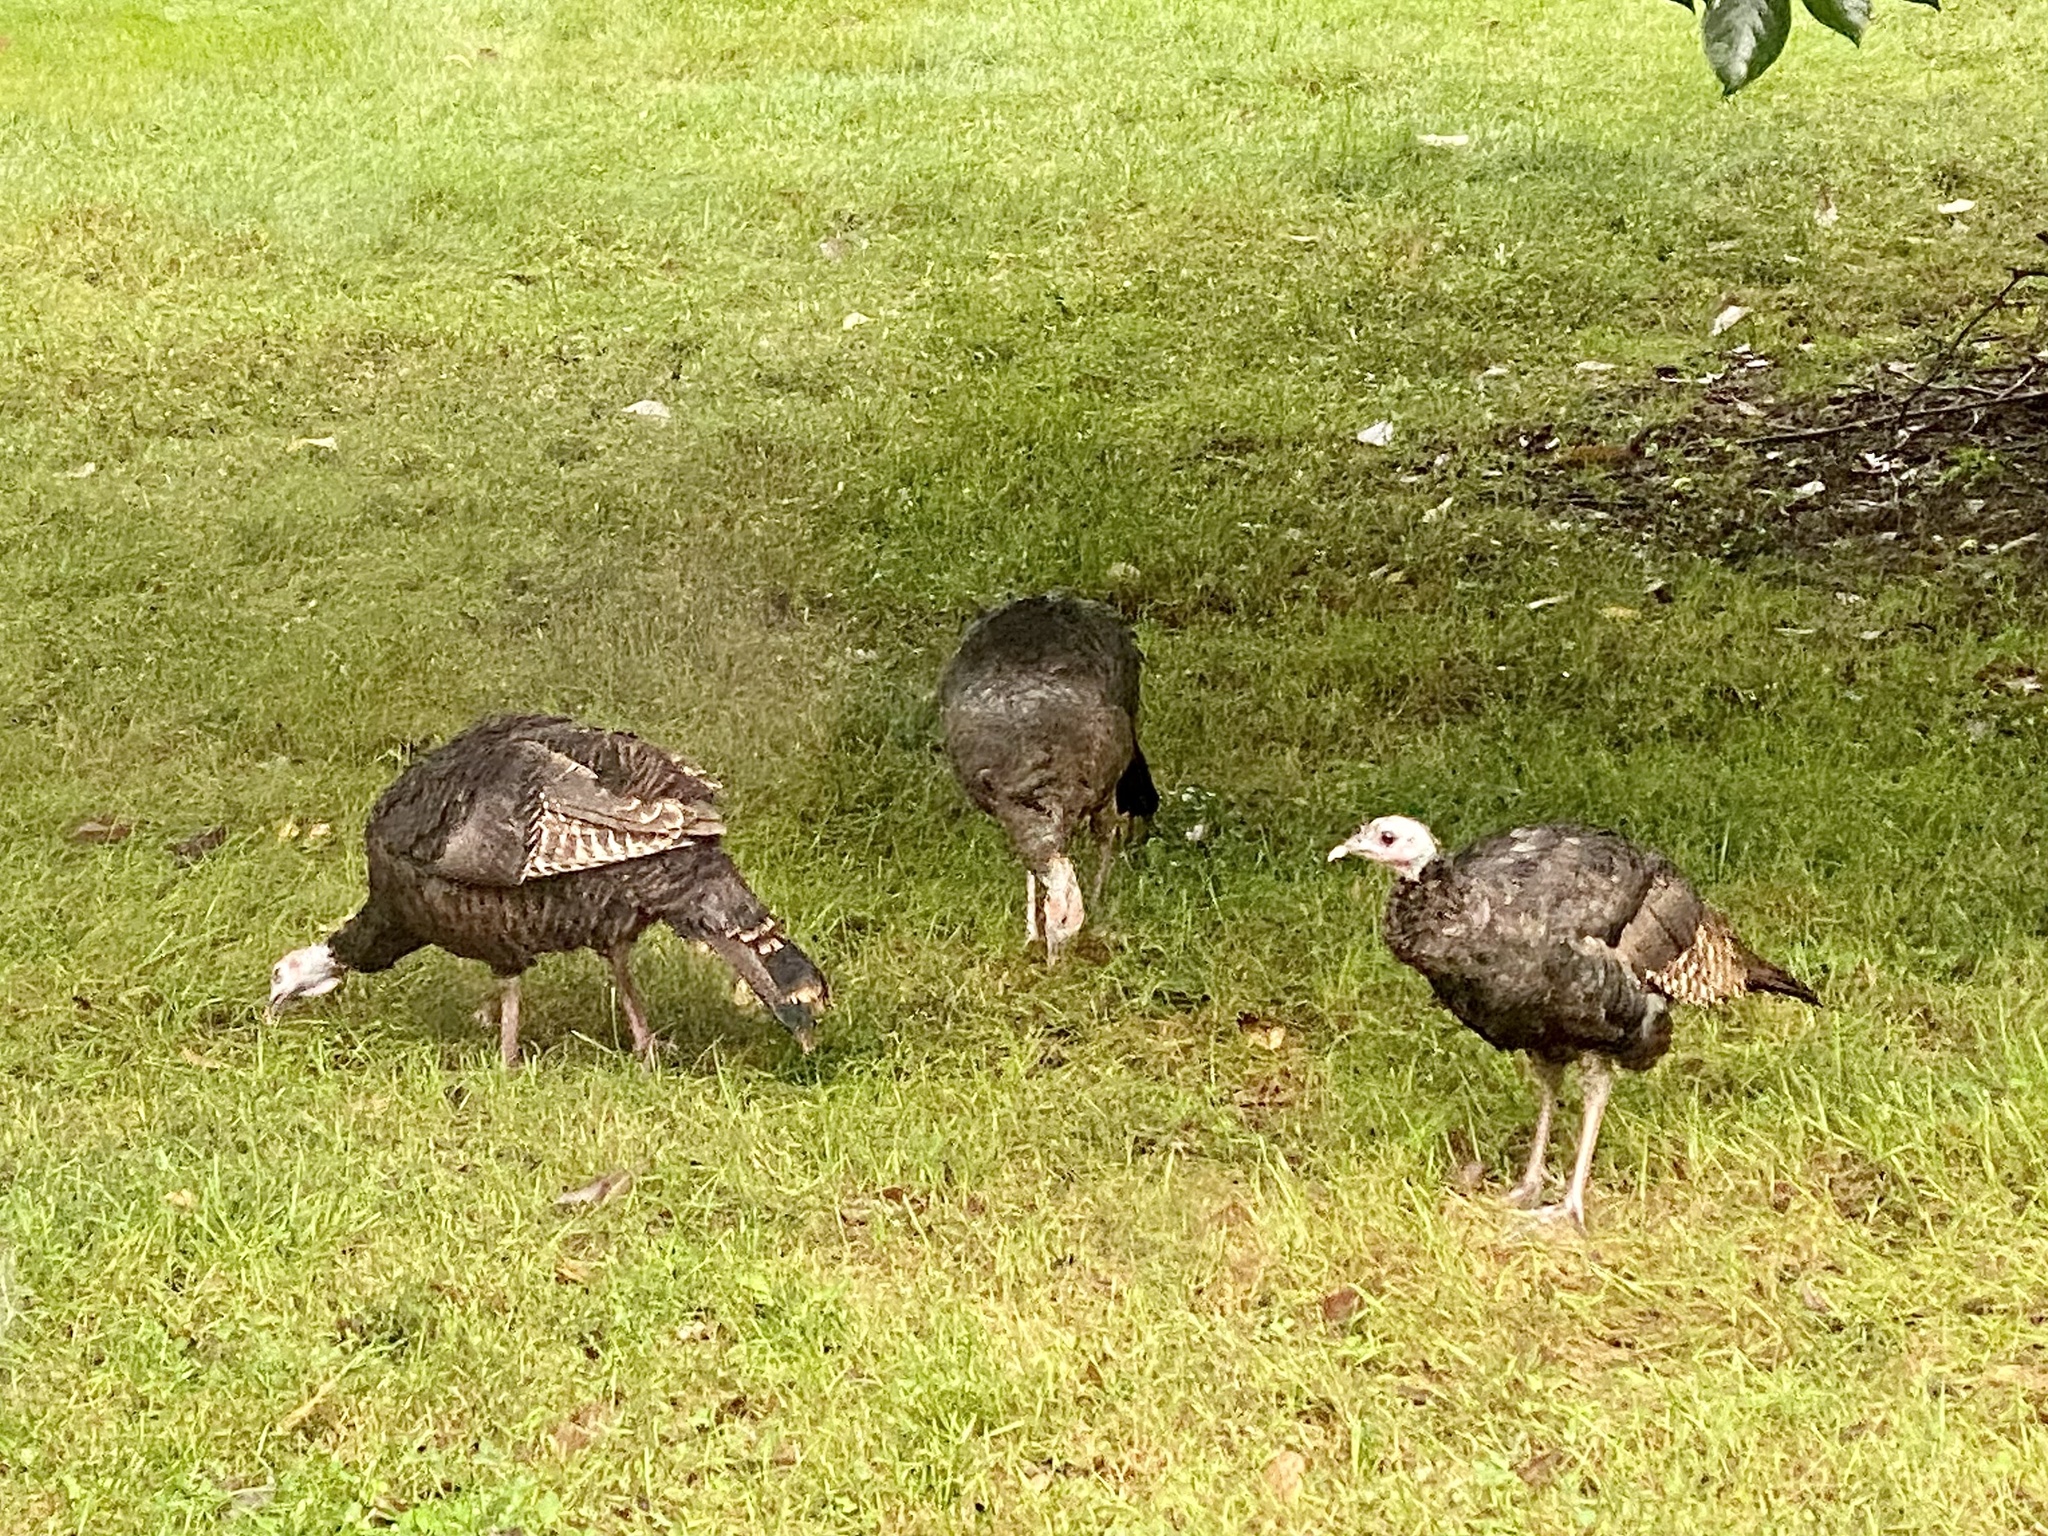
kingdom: Animalia
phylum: Chordata
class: Aves
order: Galliformes
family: Phasianidae
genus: Meleagris
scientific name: Meleagris gallopavo
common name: Wild turkey
